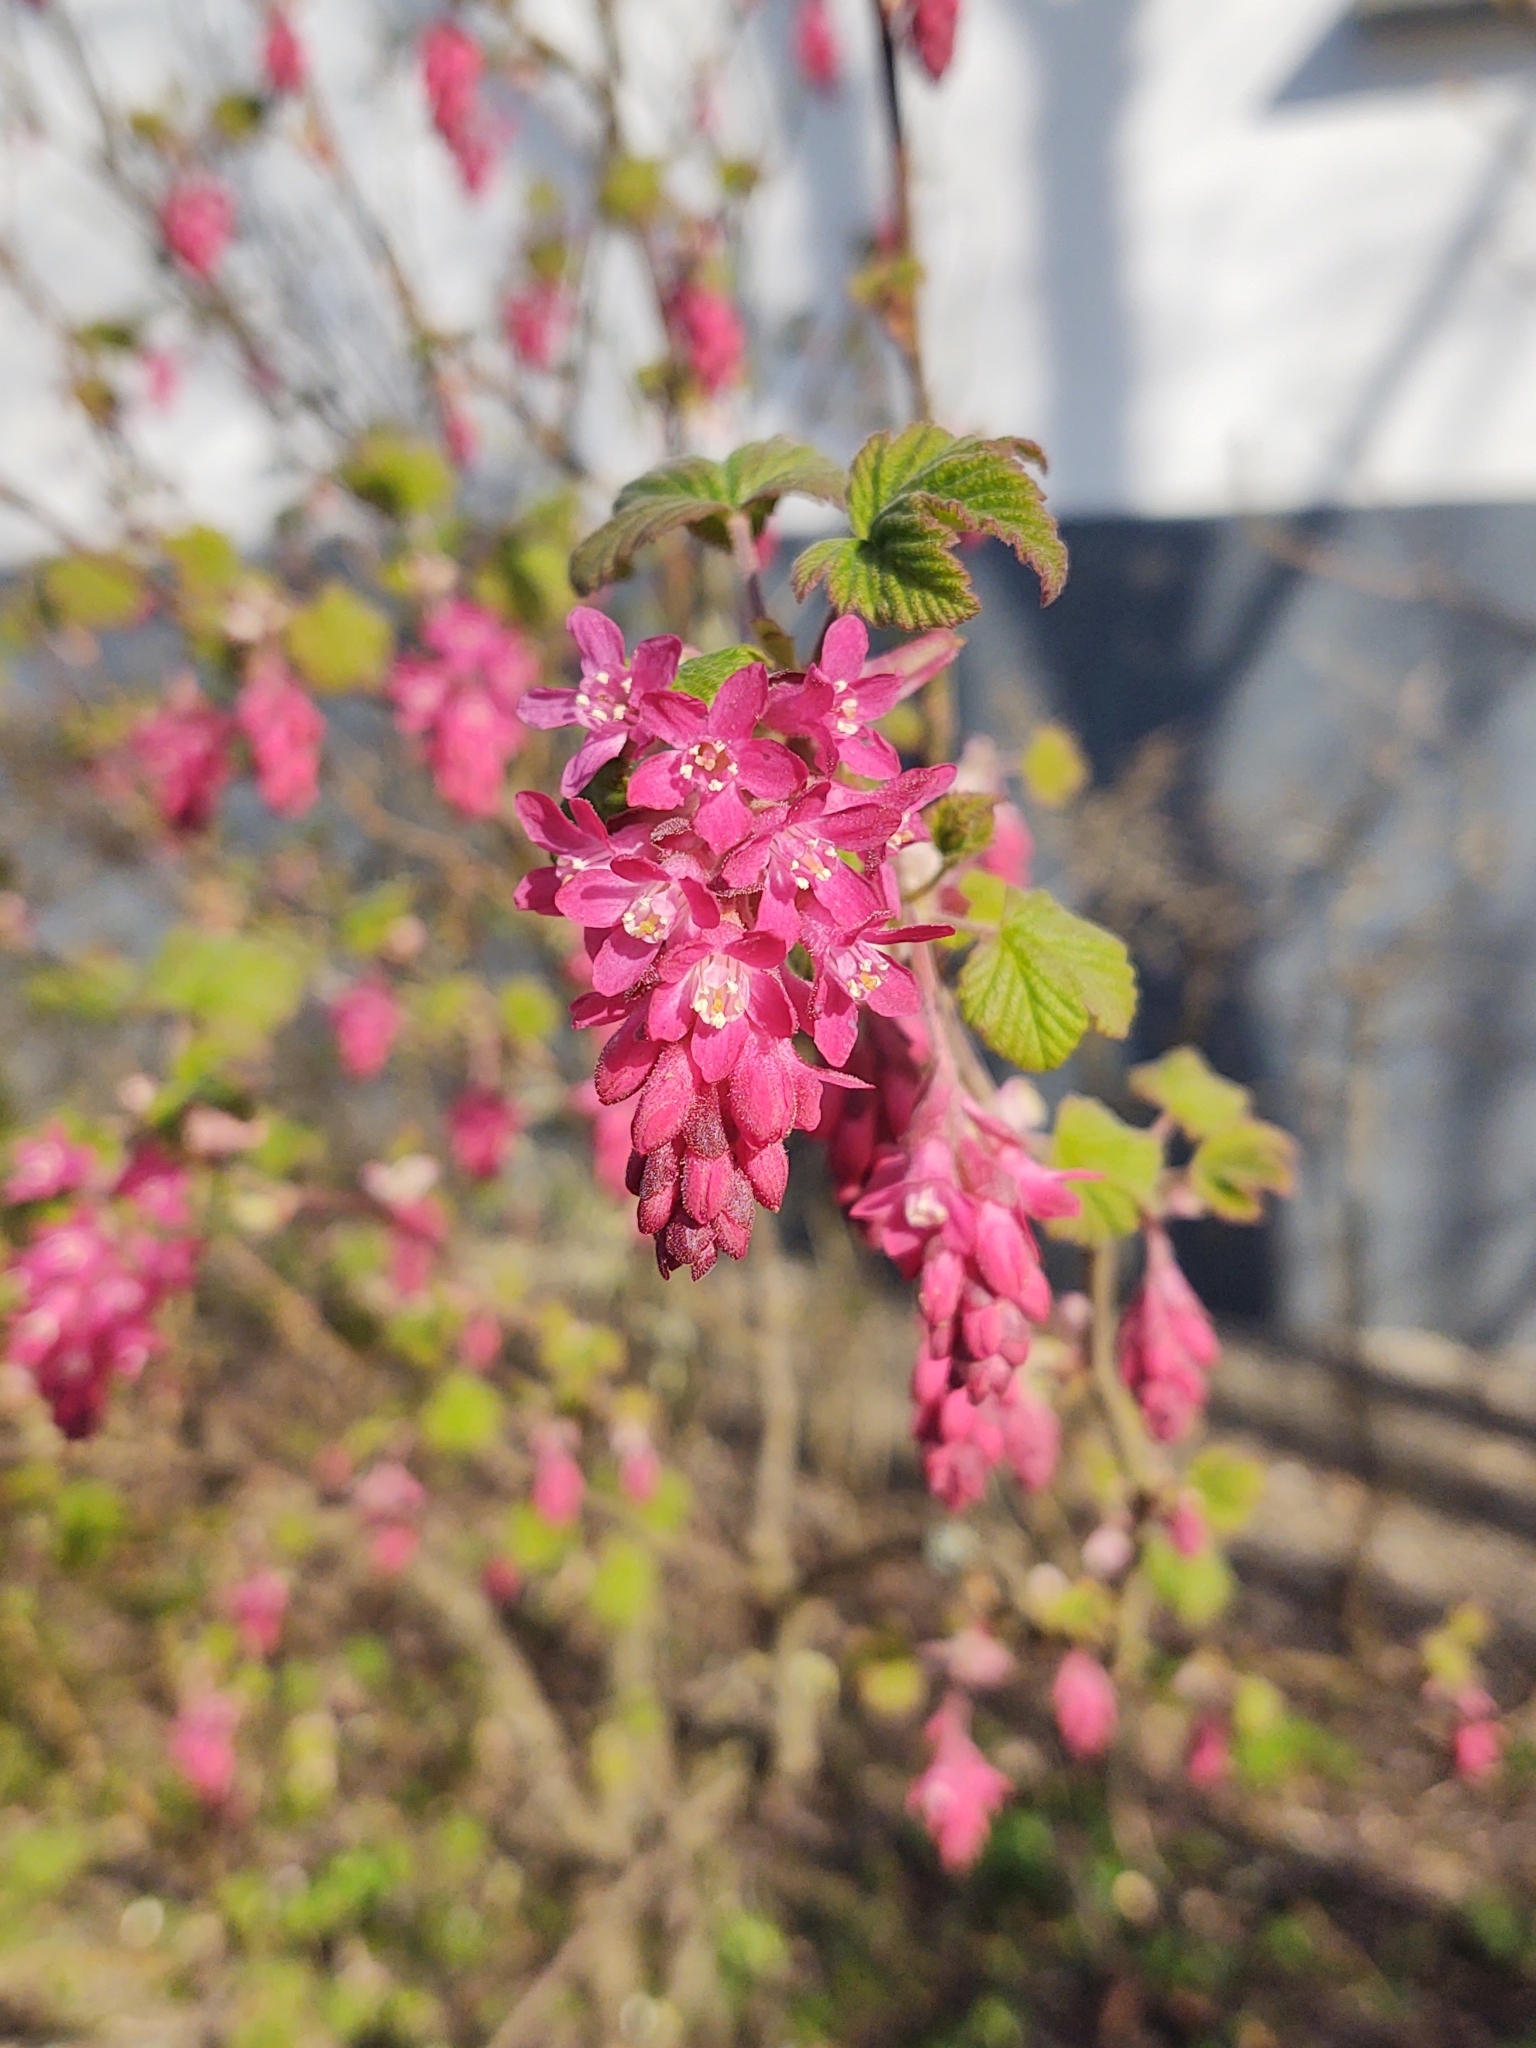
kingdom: Plantae
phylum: Tracheophyta
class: Magnoliopsida
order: Saxifragales
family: Grossulariaceae
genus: Ribes
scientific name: Ribes sanguineum
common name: Flowering currant
